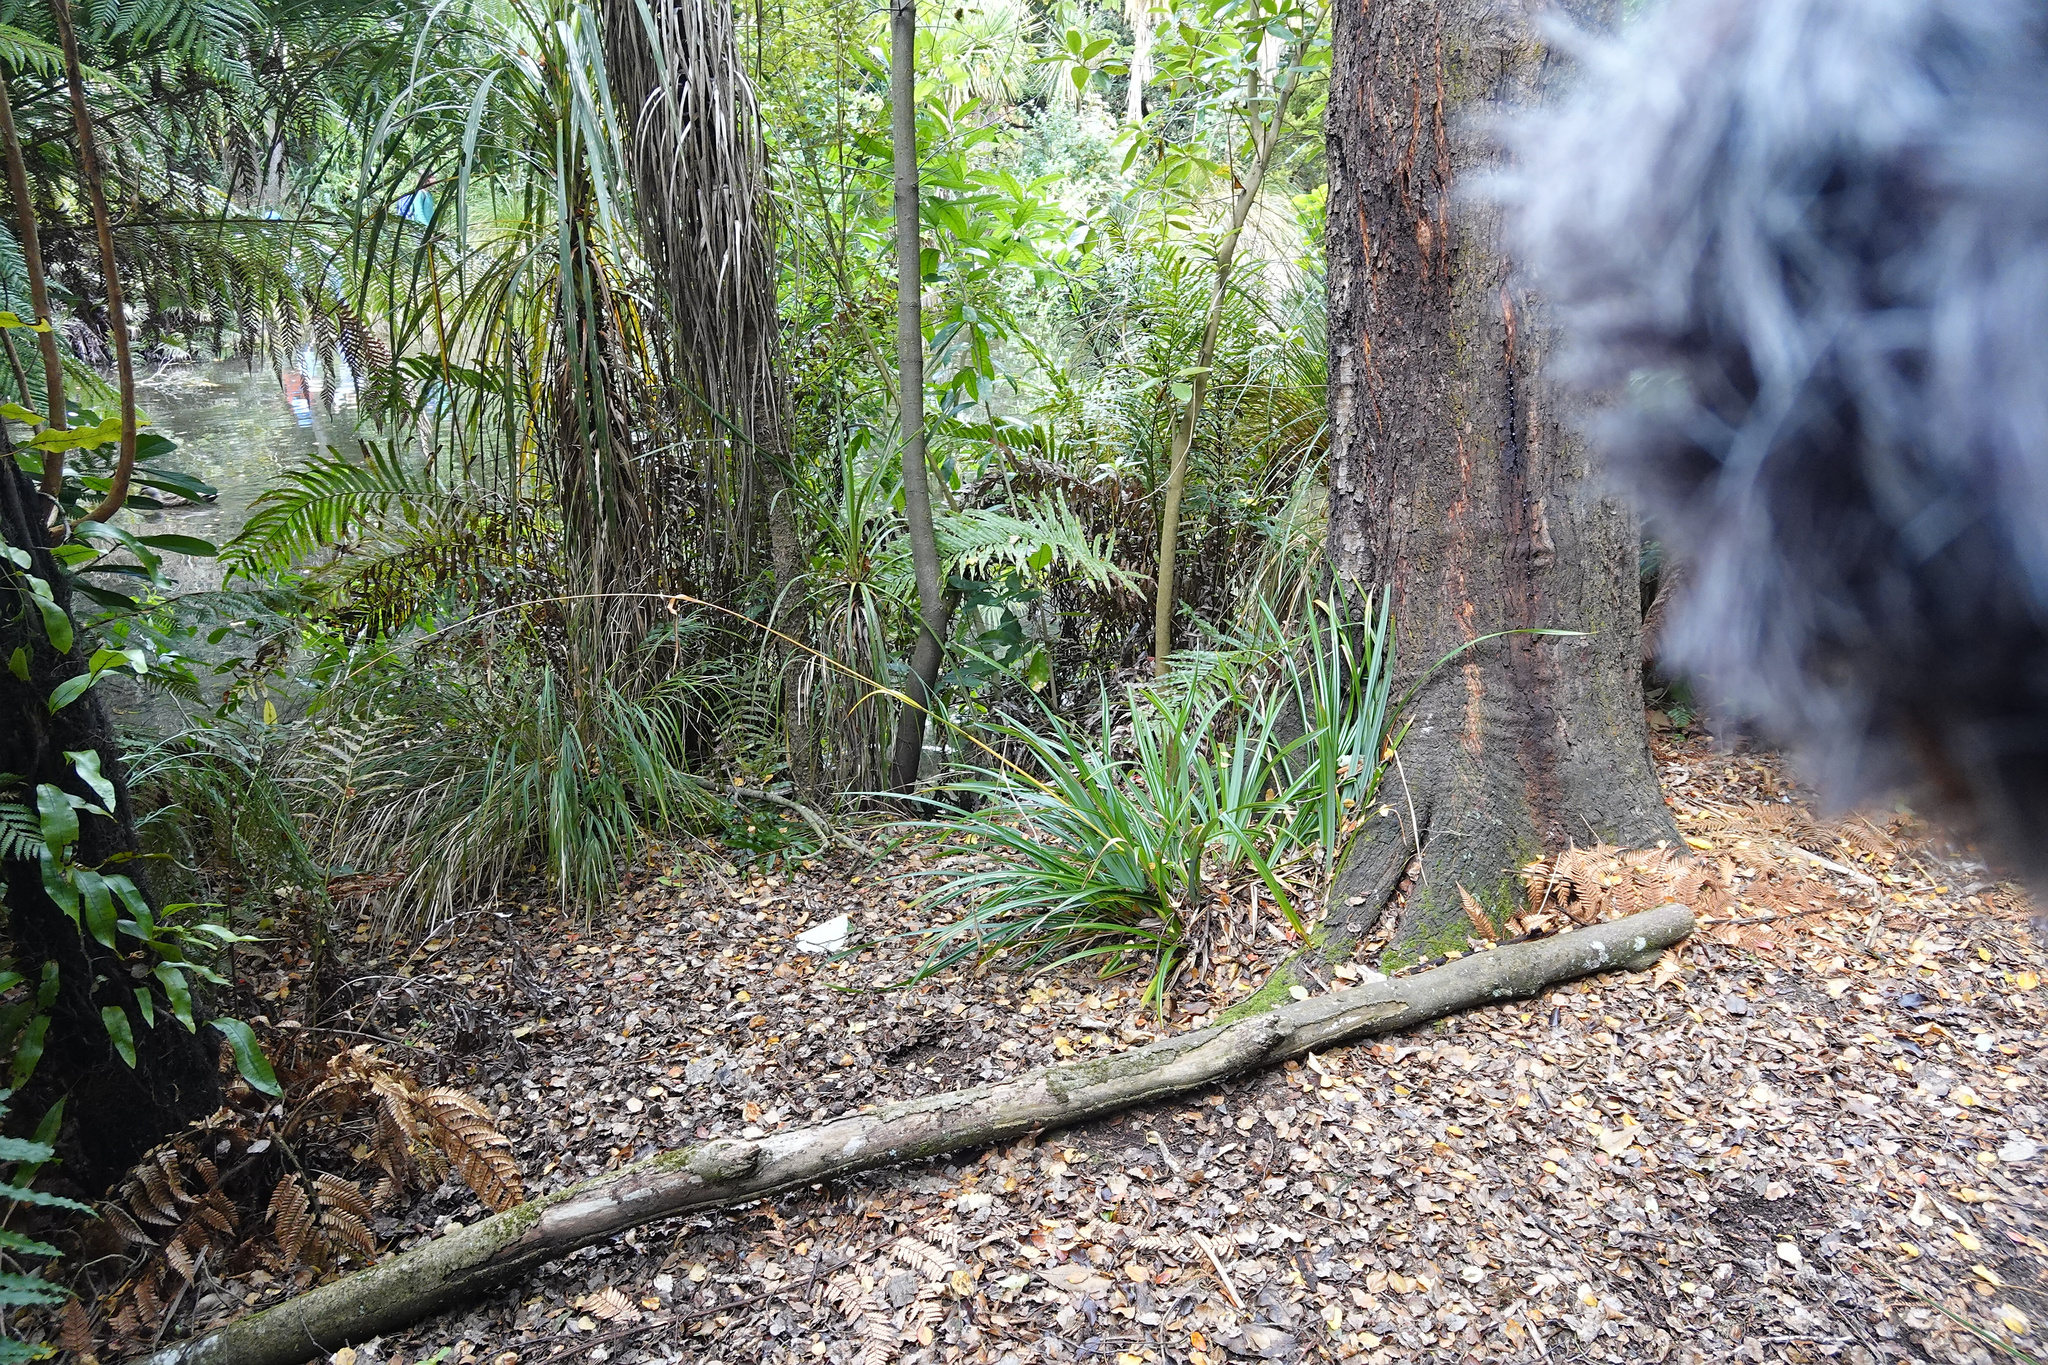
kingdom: Plantae
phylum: Tracheophyta
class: Liliopsida
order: Poales
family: Cyperaceae
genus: Carex
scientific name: Carex pendula
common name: Pendulous sedge
